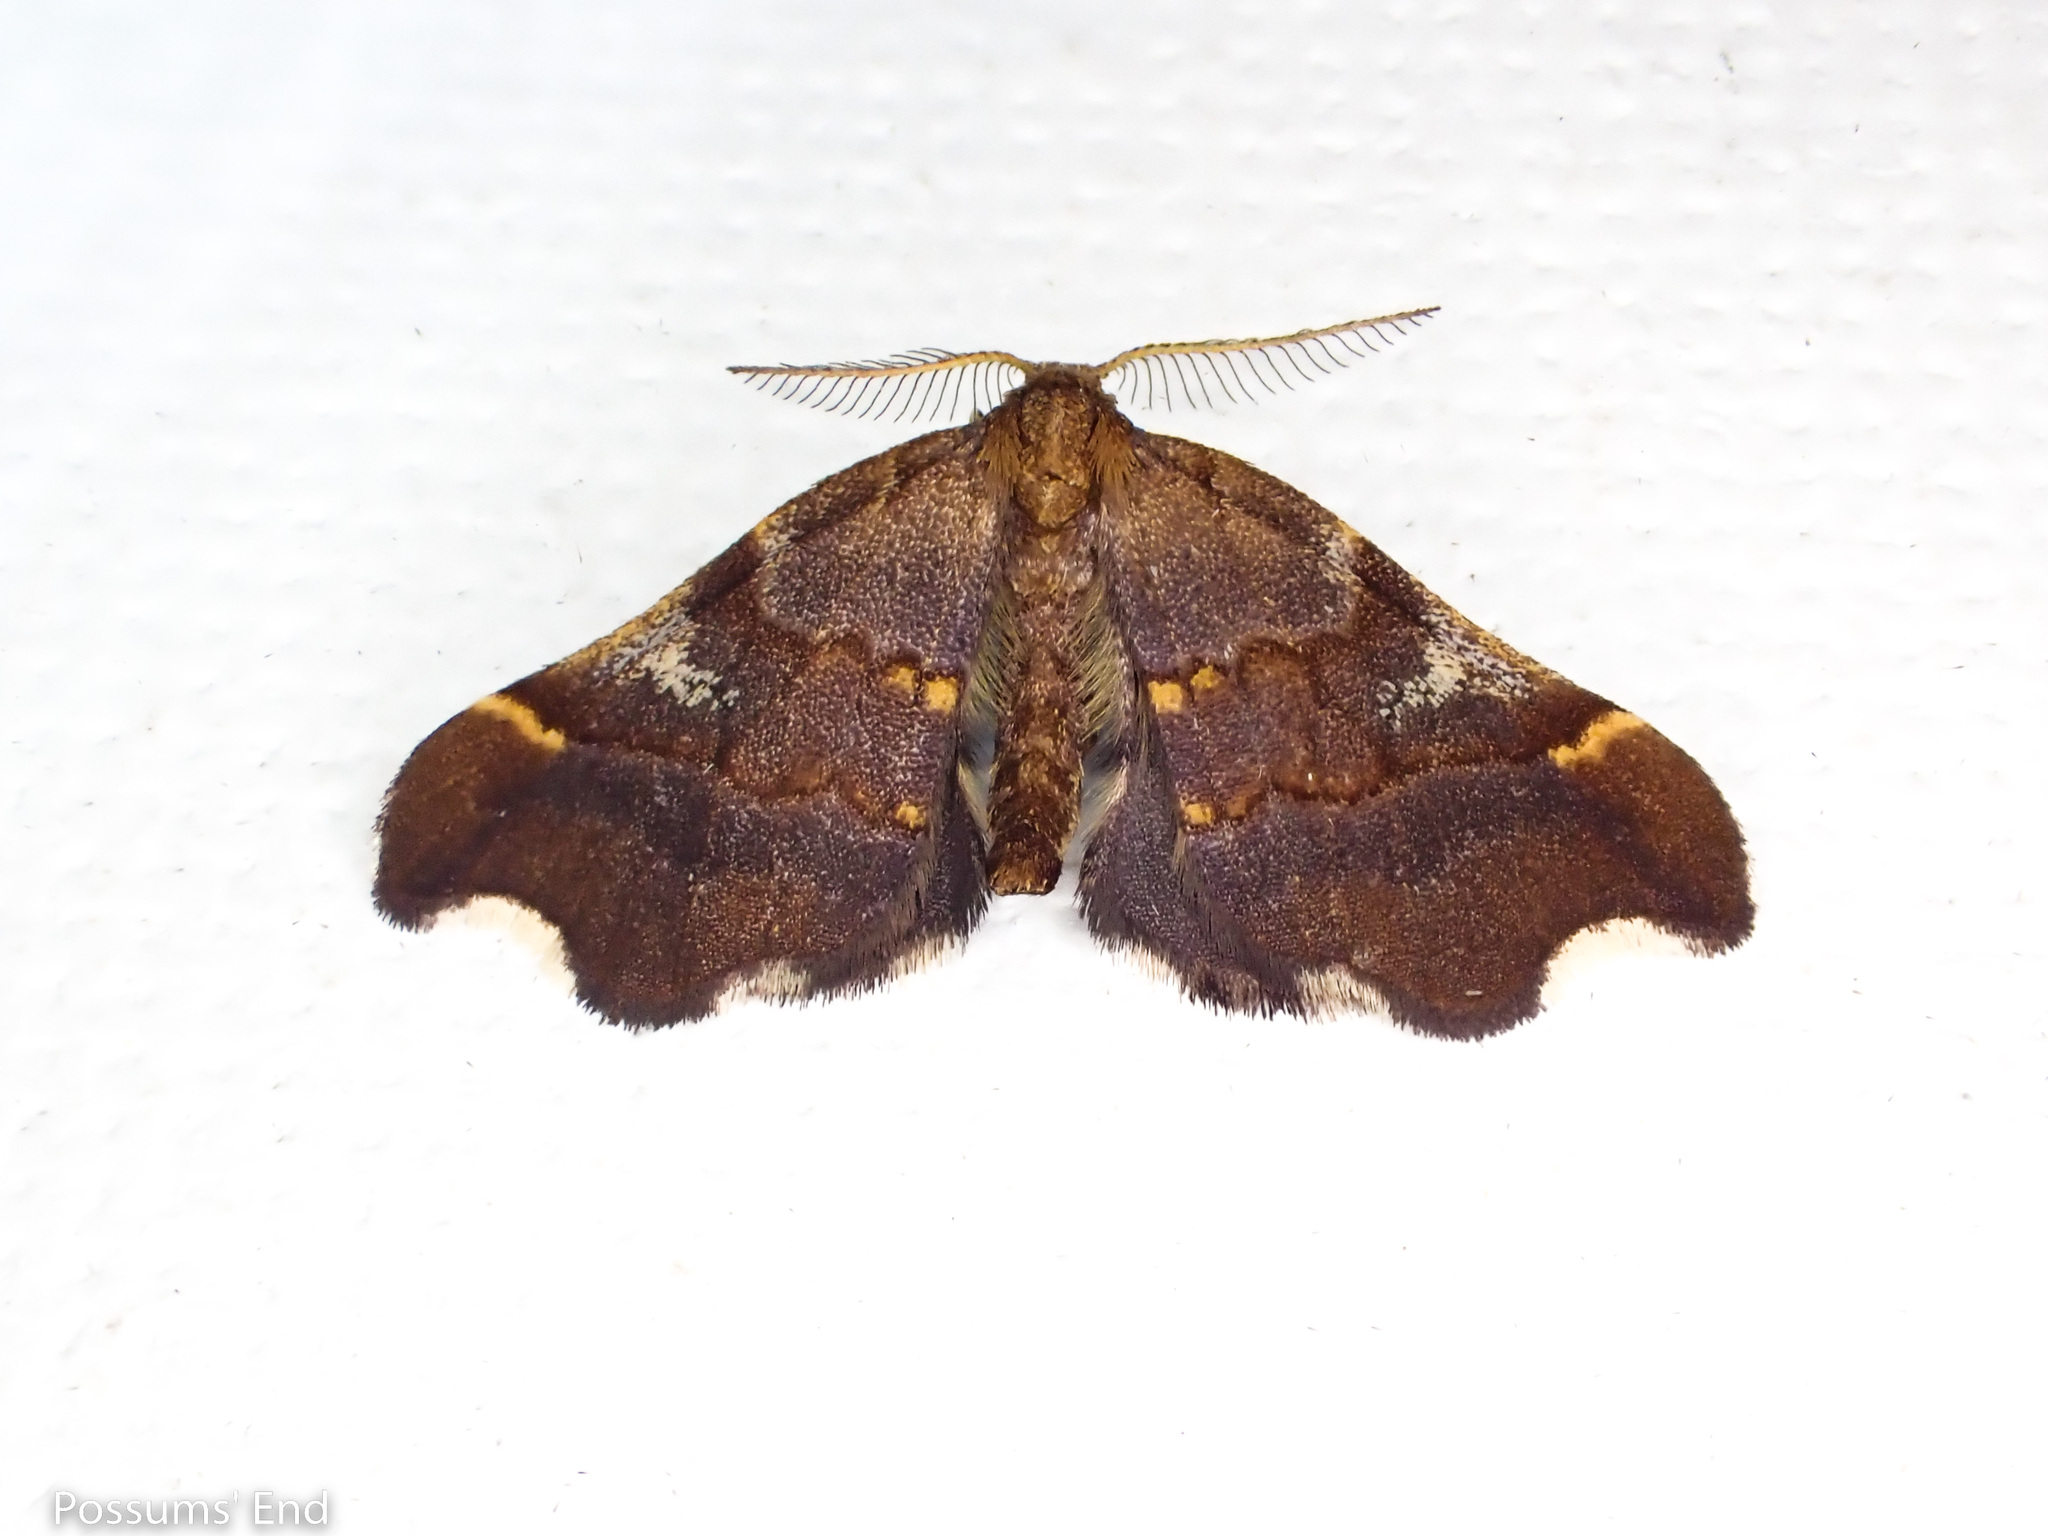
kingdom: Animalia
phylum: Arthropoda
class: Insecta
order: Lepidoptera
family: Geometridae
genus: Paradetis
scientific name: Paradetis porphyrias
